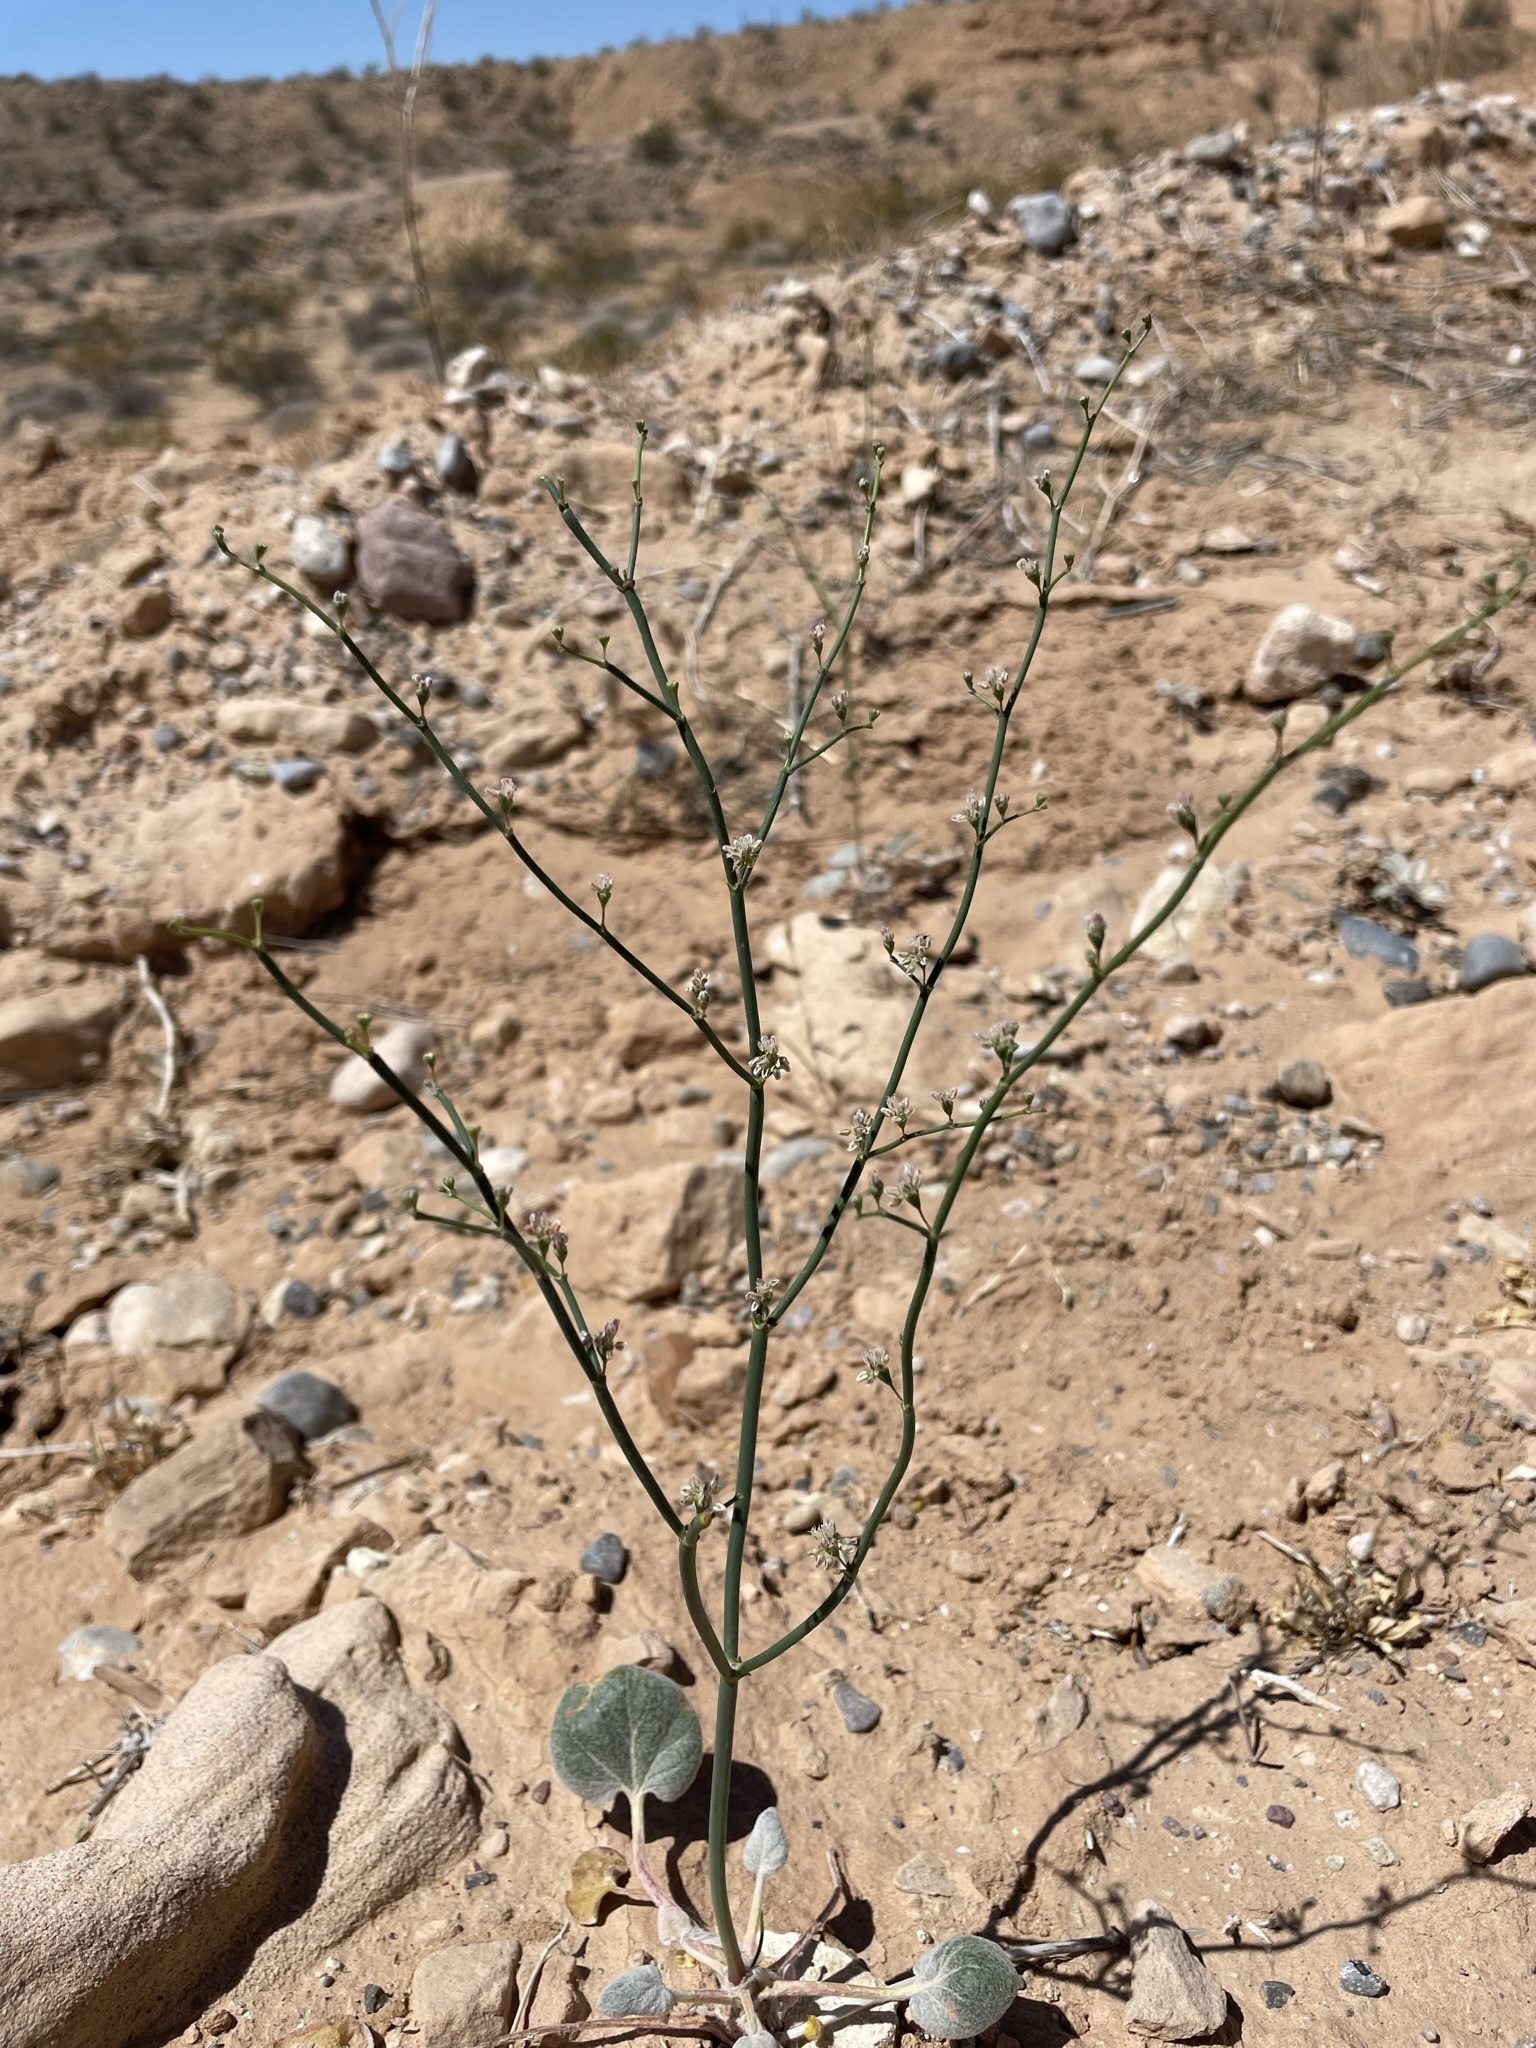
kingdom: Plantae
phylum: Tracheophyta
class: Magnoliopsida
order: Caryophyllales
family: Polygonaceae
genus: Eriogonum
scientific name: Eriogonum exaltatum
